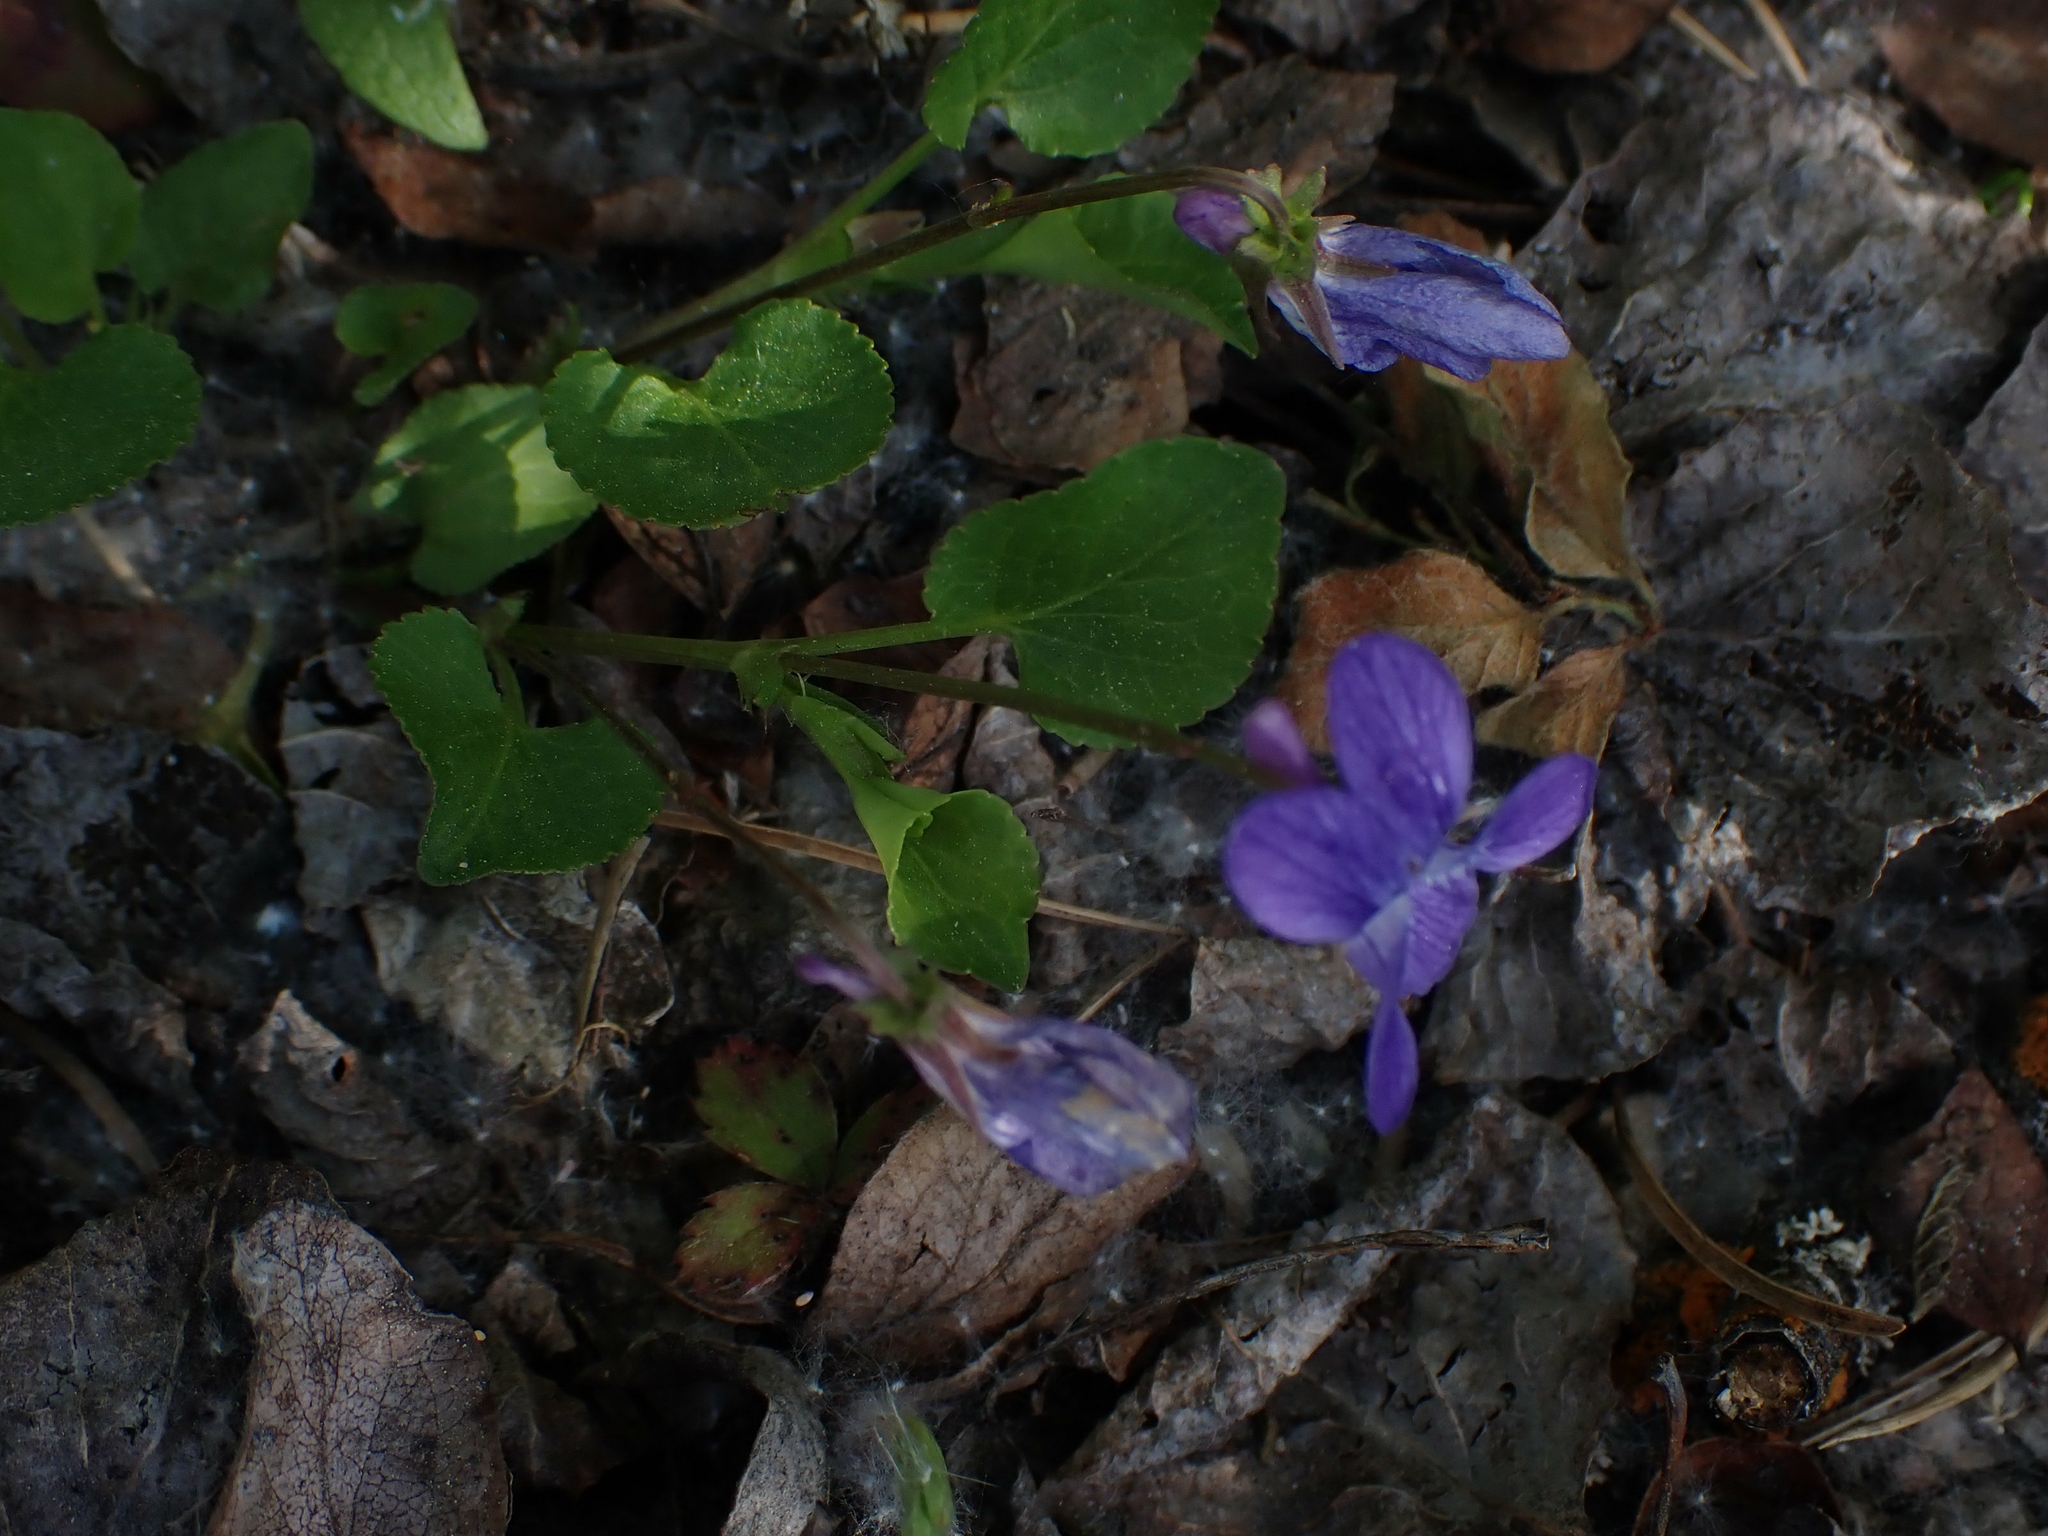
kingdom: Plantae
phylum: Tracheophyta
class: Magnoliopsida
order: Malpighiales
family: Violaceae
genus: Viola
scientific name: Viola adunca
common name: Sand violet
